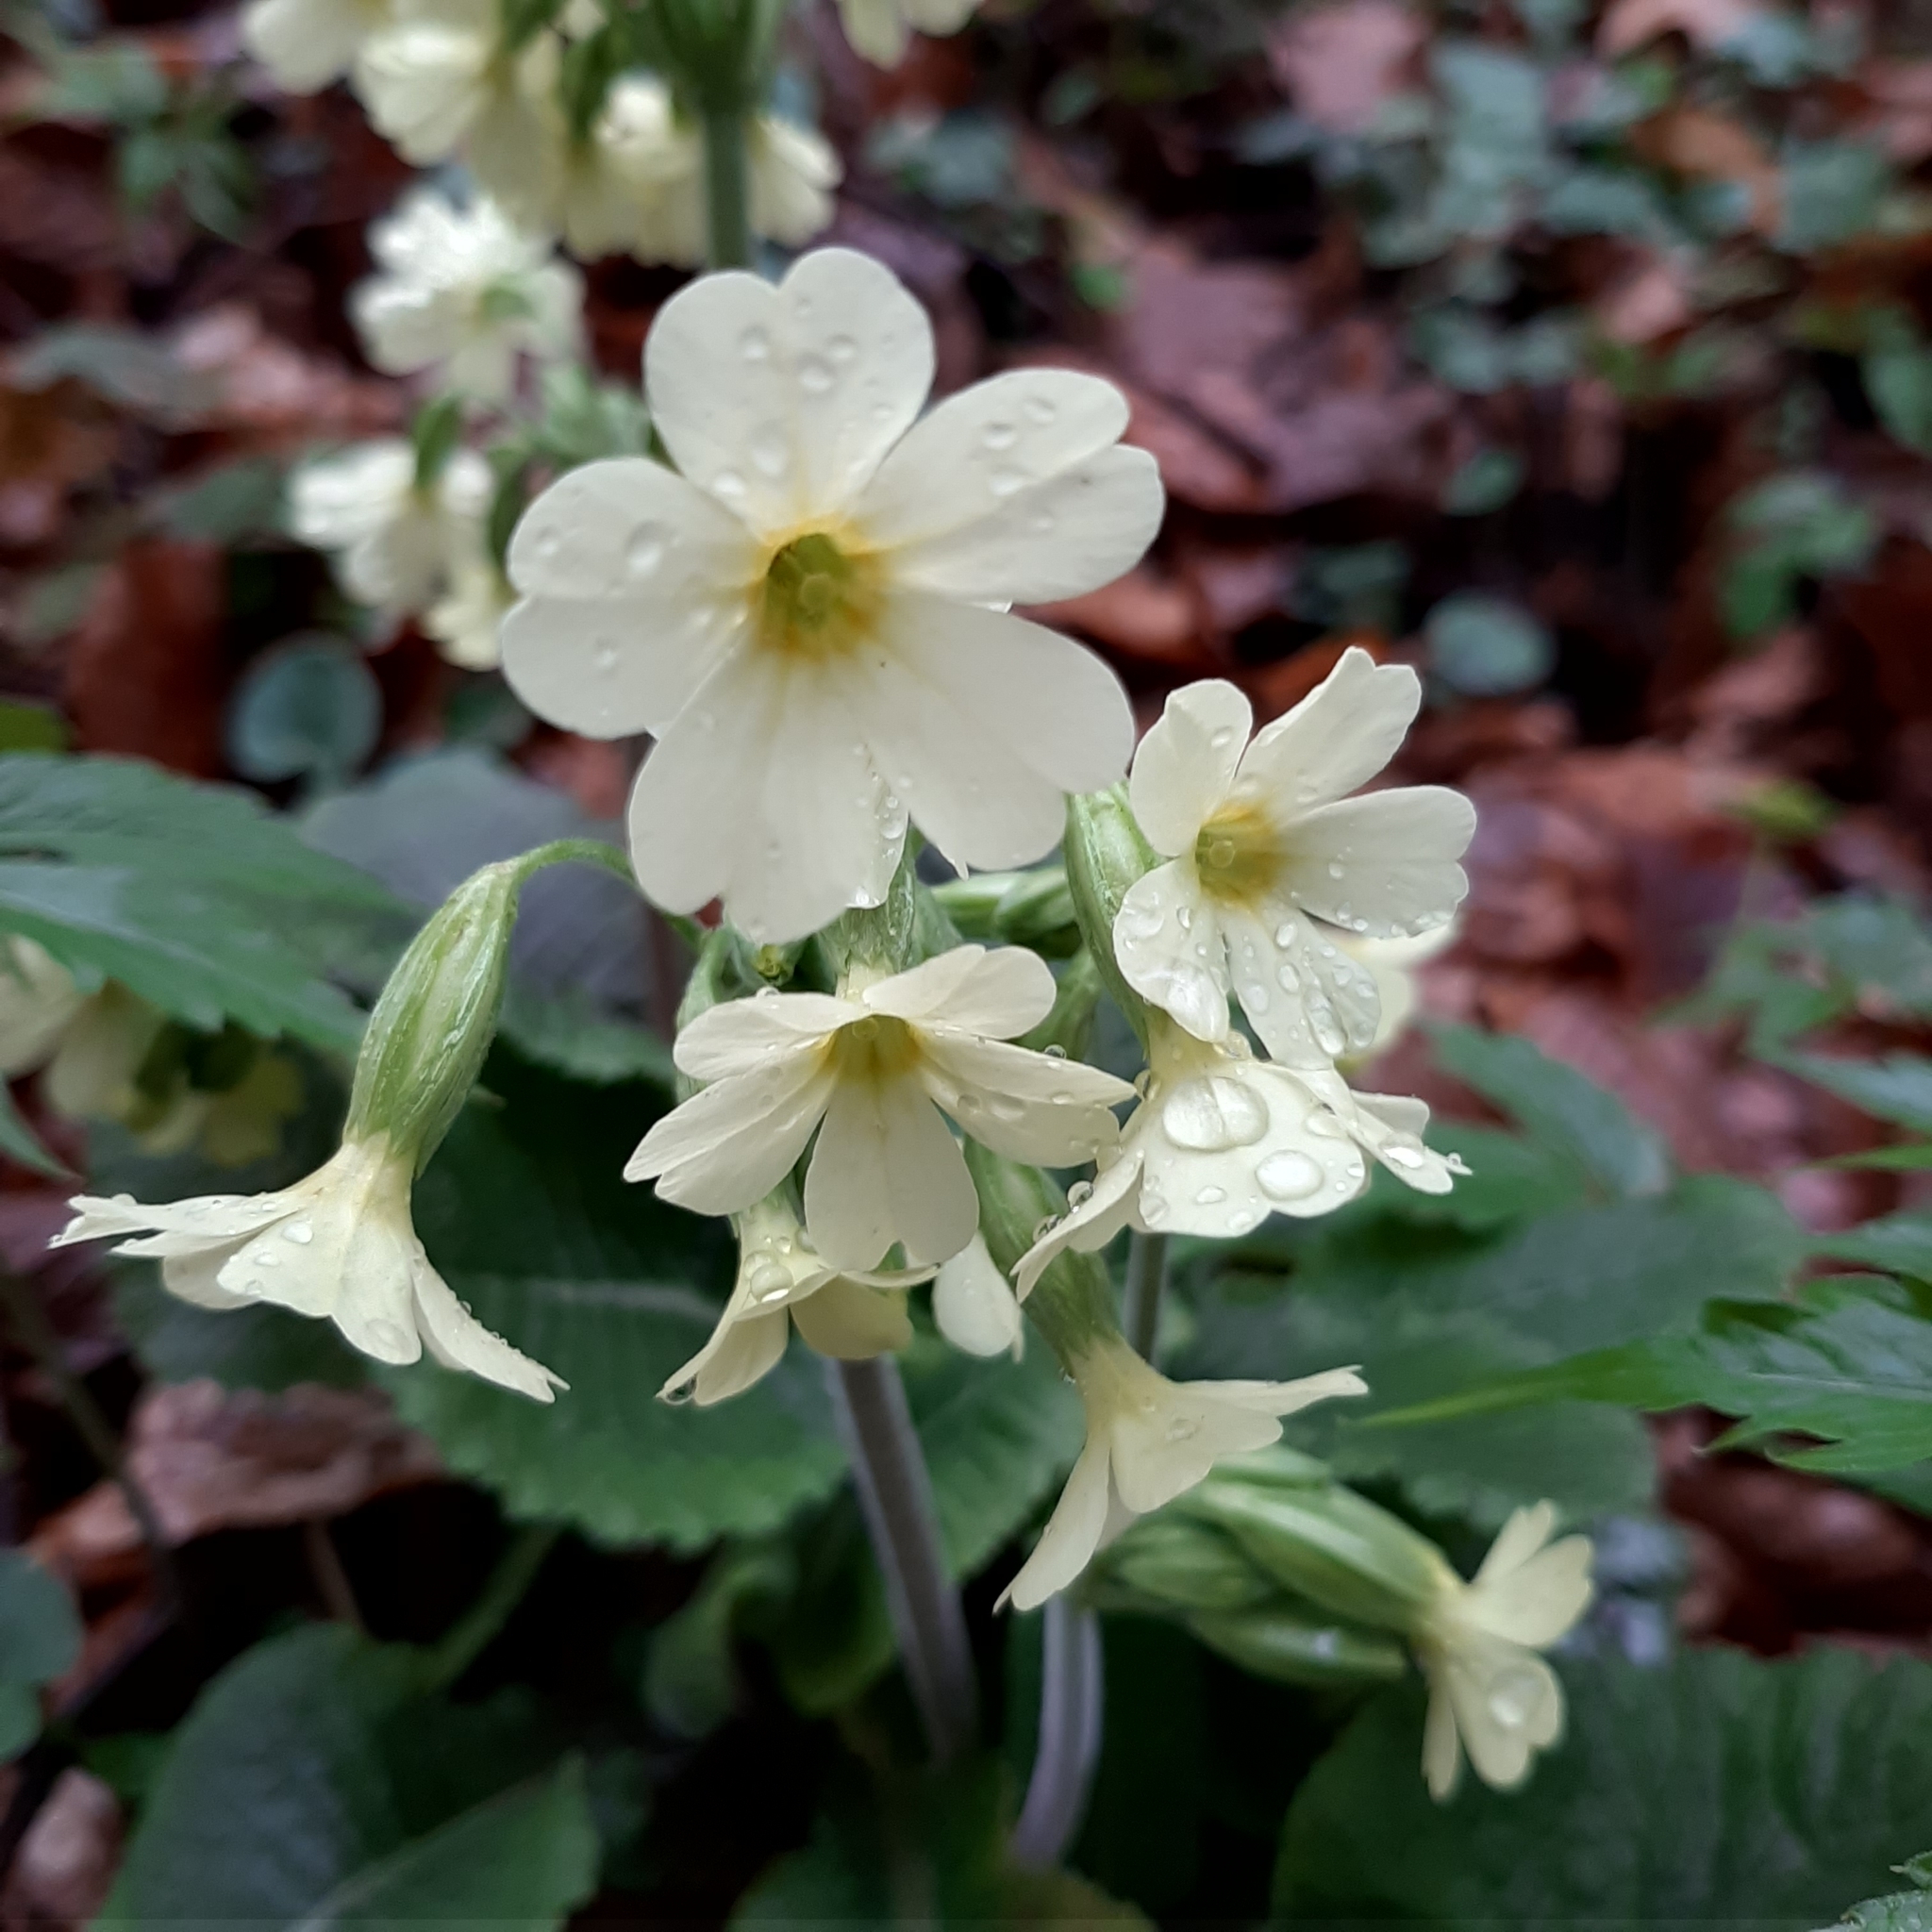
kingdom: Plantae
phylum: Tracheophyta
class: Magnoliopsida
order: Ericales
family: Primulaceae
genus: Primula
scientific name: Primula elatior
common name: Oxlip
